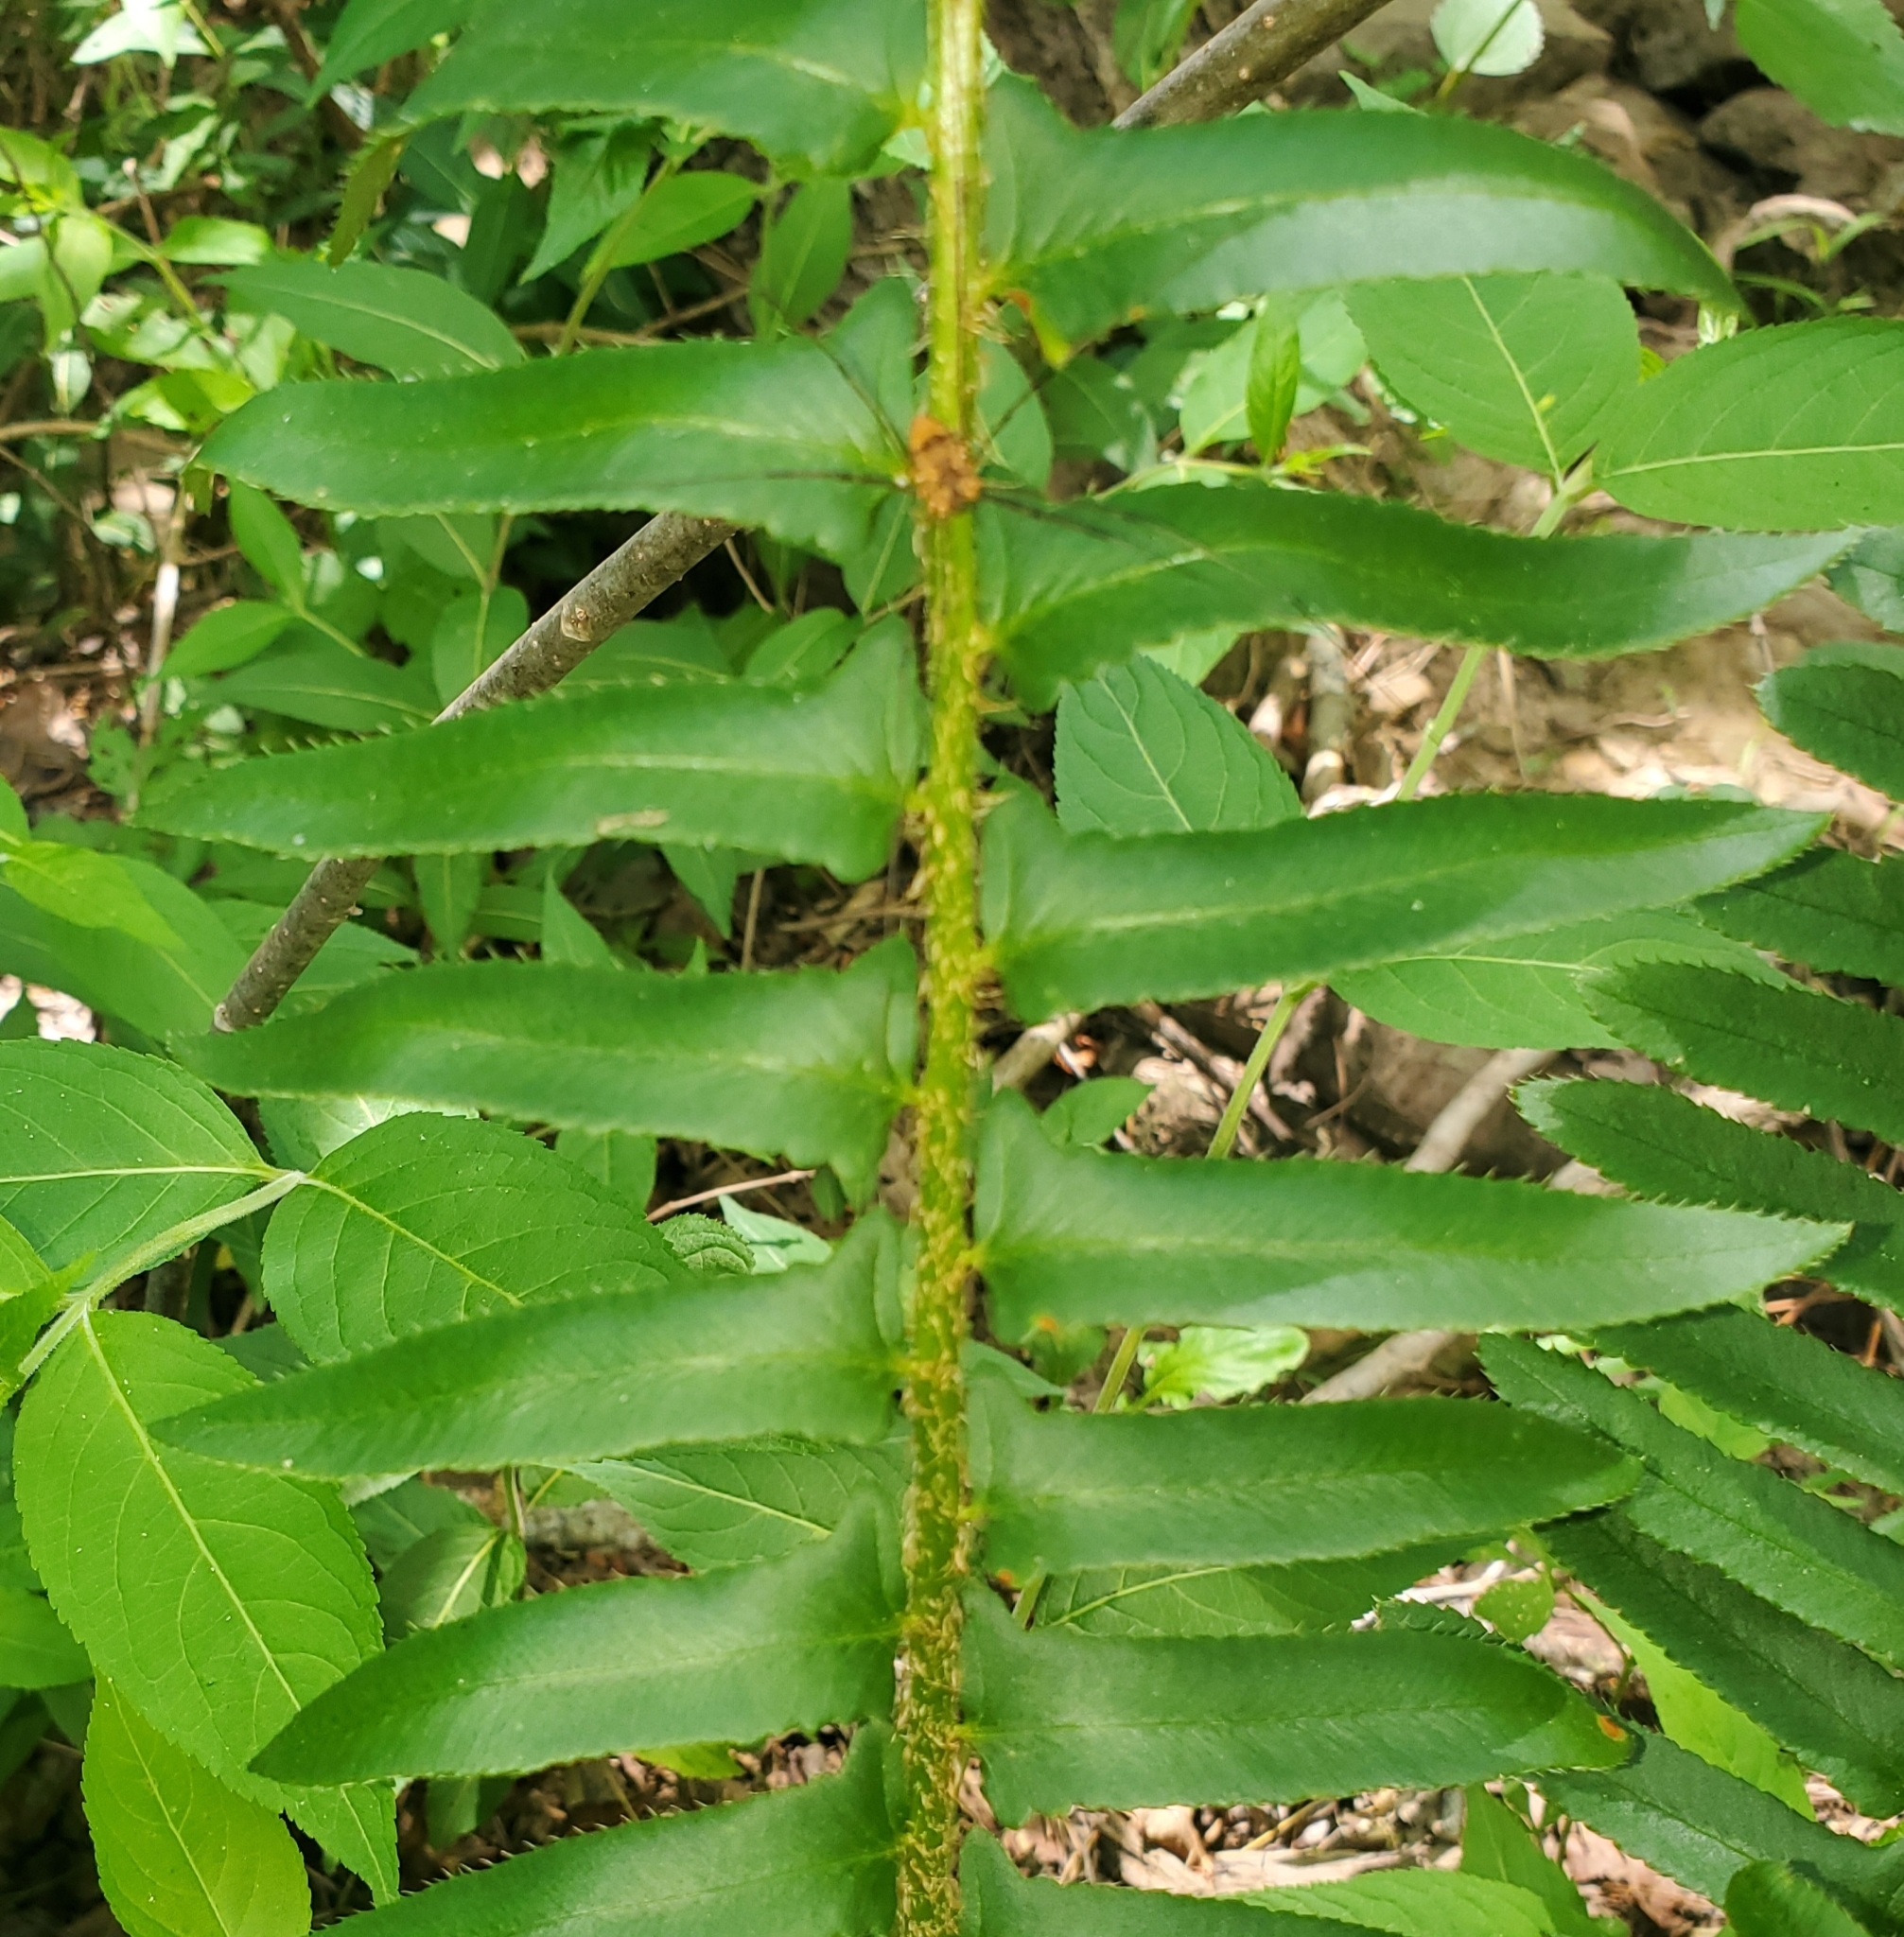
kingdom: Plantae
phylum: Tracheophyta
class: Polypodiopsida
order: Polypodiales
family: Dryopteridaceae
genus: Polystichum
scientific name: Polystichum acrostichoides
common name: Christmas fern
